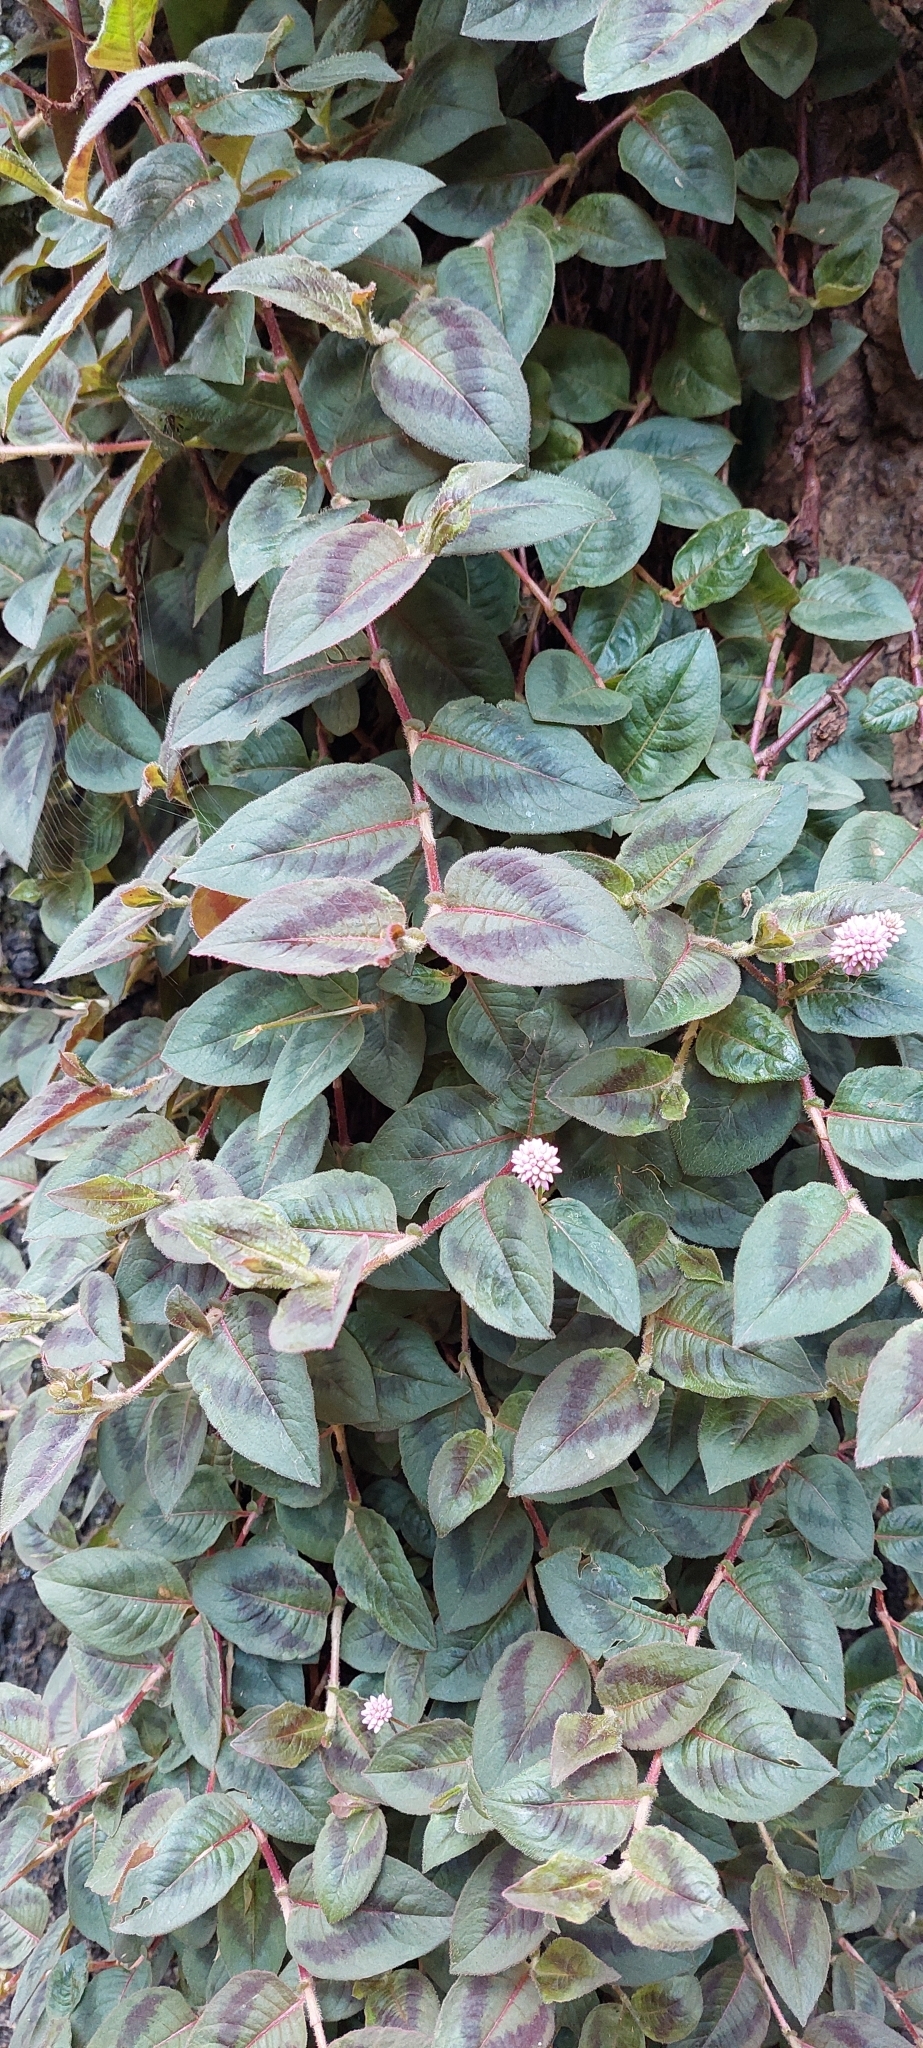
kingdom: Plantae
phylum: Tracheophyta
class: Magnoliopsida
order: Caryophyllales
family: Polygonaceae
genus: Persicaria
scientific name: Persicaria capitata
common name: Pinkhead smartweed
